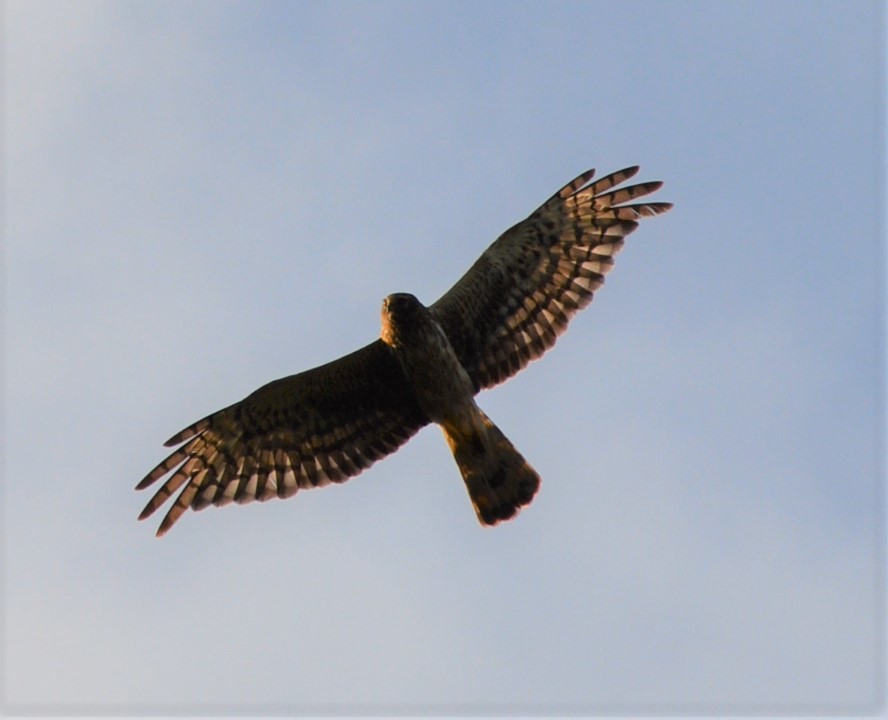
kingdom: Animalia
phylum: Chordata
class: Aves
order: Accipitriformes
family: Accipitridae
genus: Circus
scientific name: Circus cyaneus
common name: Hen harrier
